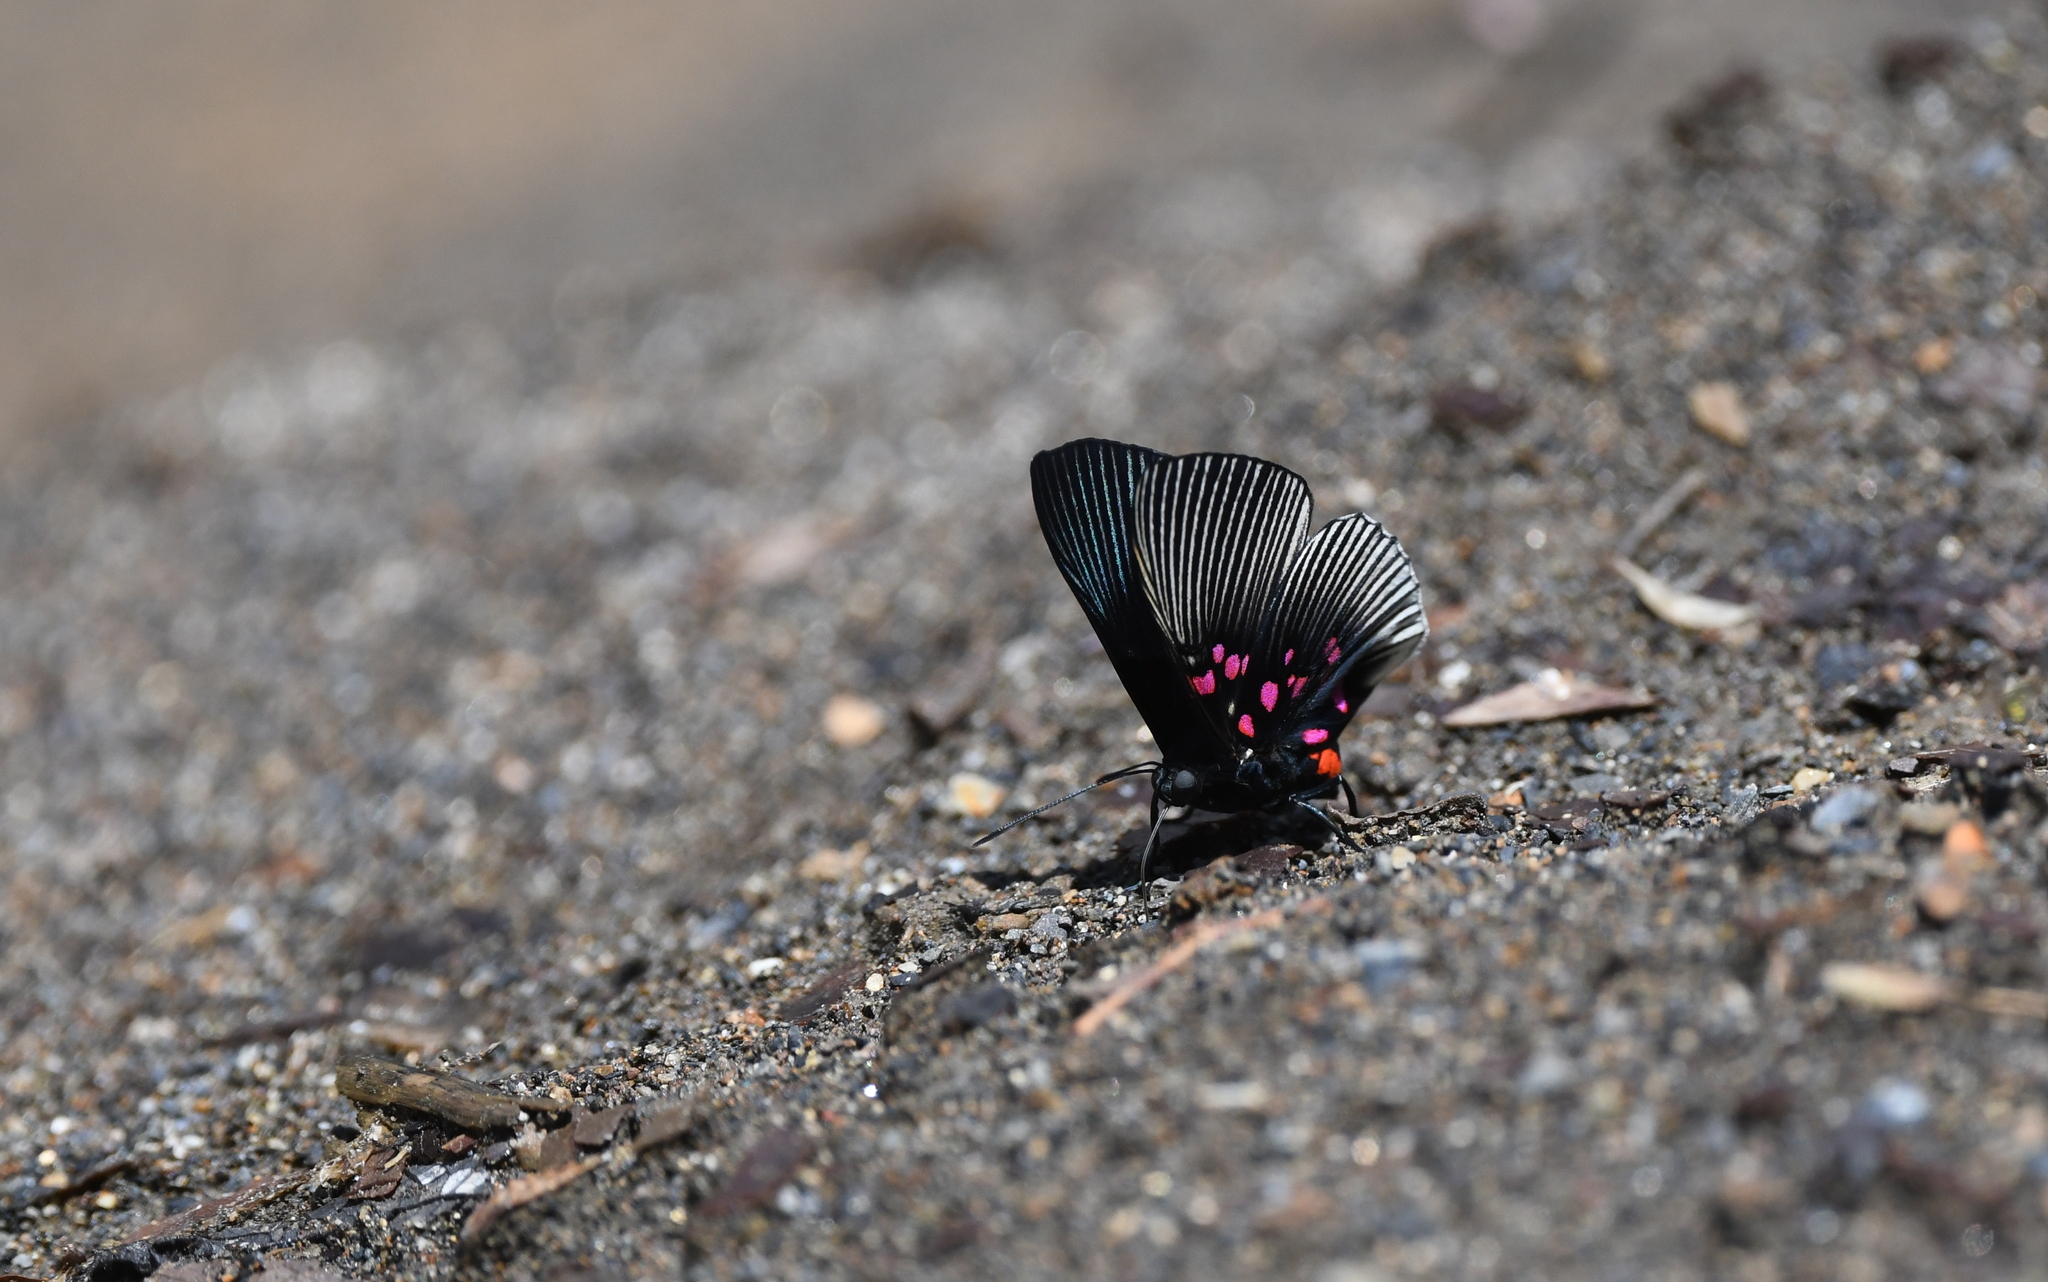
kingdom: Animalia
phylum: Arthropoda
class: Insecta
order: Lepidoptera
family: Riodinidae
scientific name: Riodinidae
